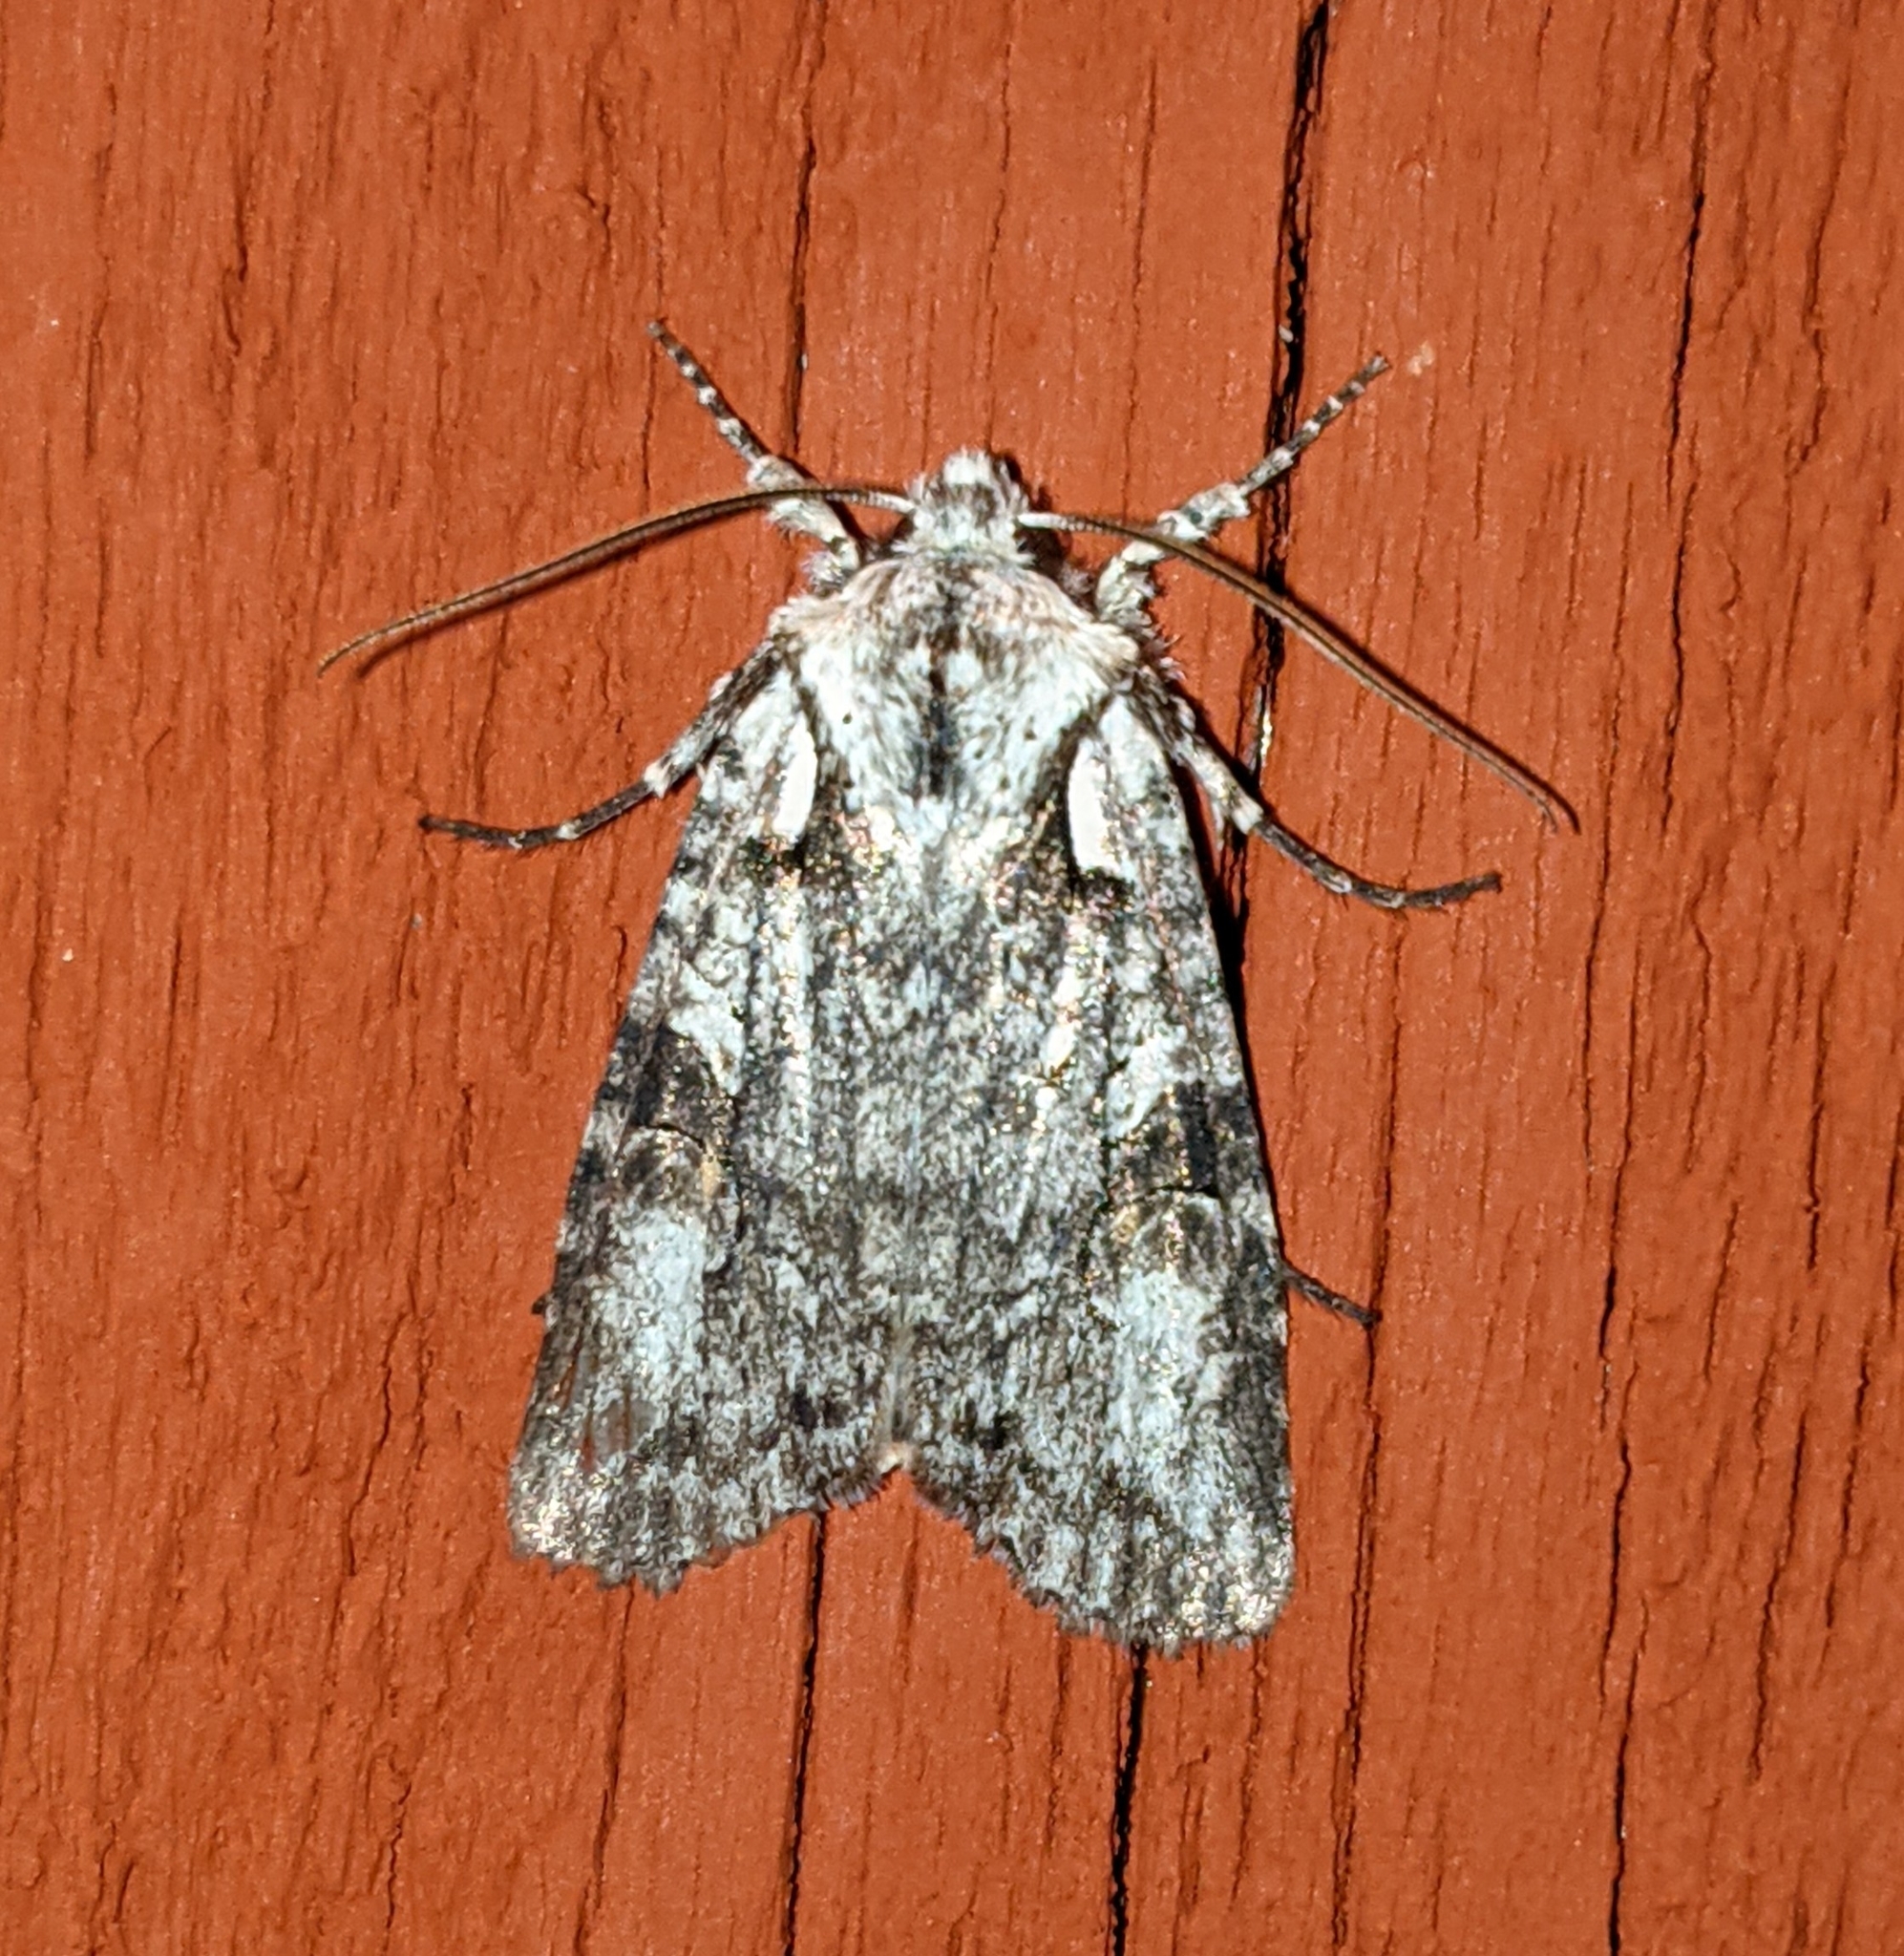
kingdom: Animalia
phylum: Arthropoda
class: Insecta
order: Lepidoptera
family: Noctuidae
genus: Lithophane
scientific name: Lithophane baileyi
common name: Bailey's pinion moth
